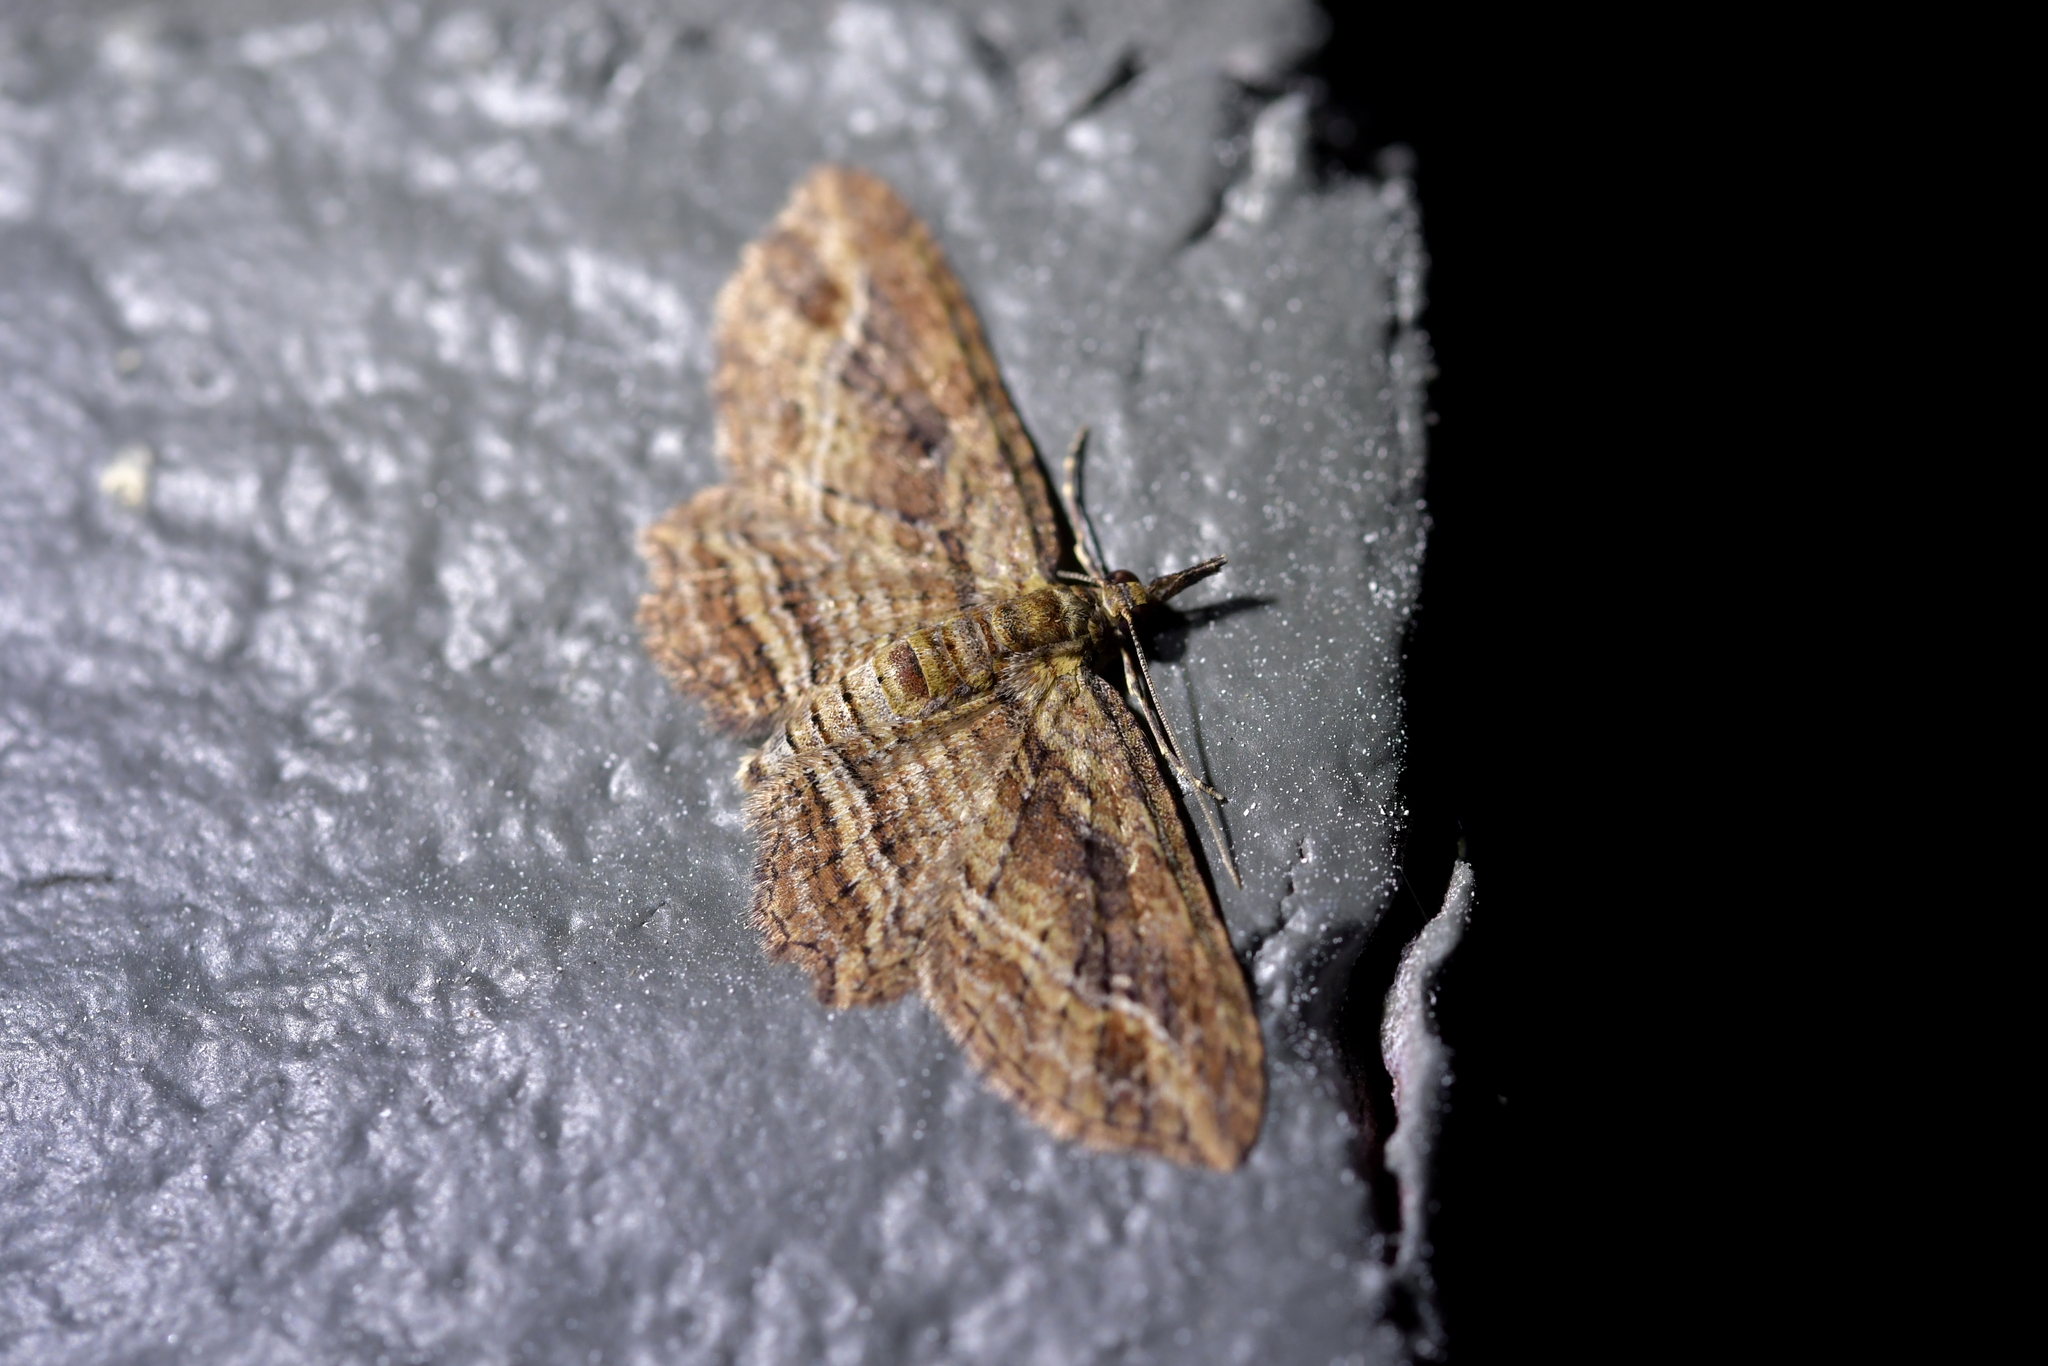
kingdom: Animalia
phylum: Arthropoda
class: Insecta
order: Lepidoptera
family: Geometridae
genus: Chloroclystis
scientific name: Chloroclystis filata
